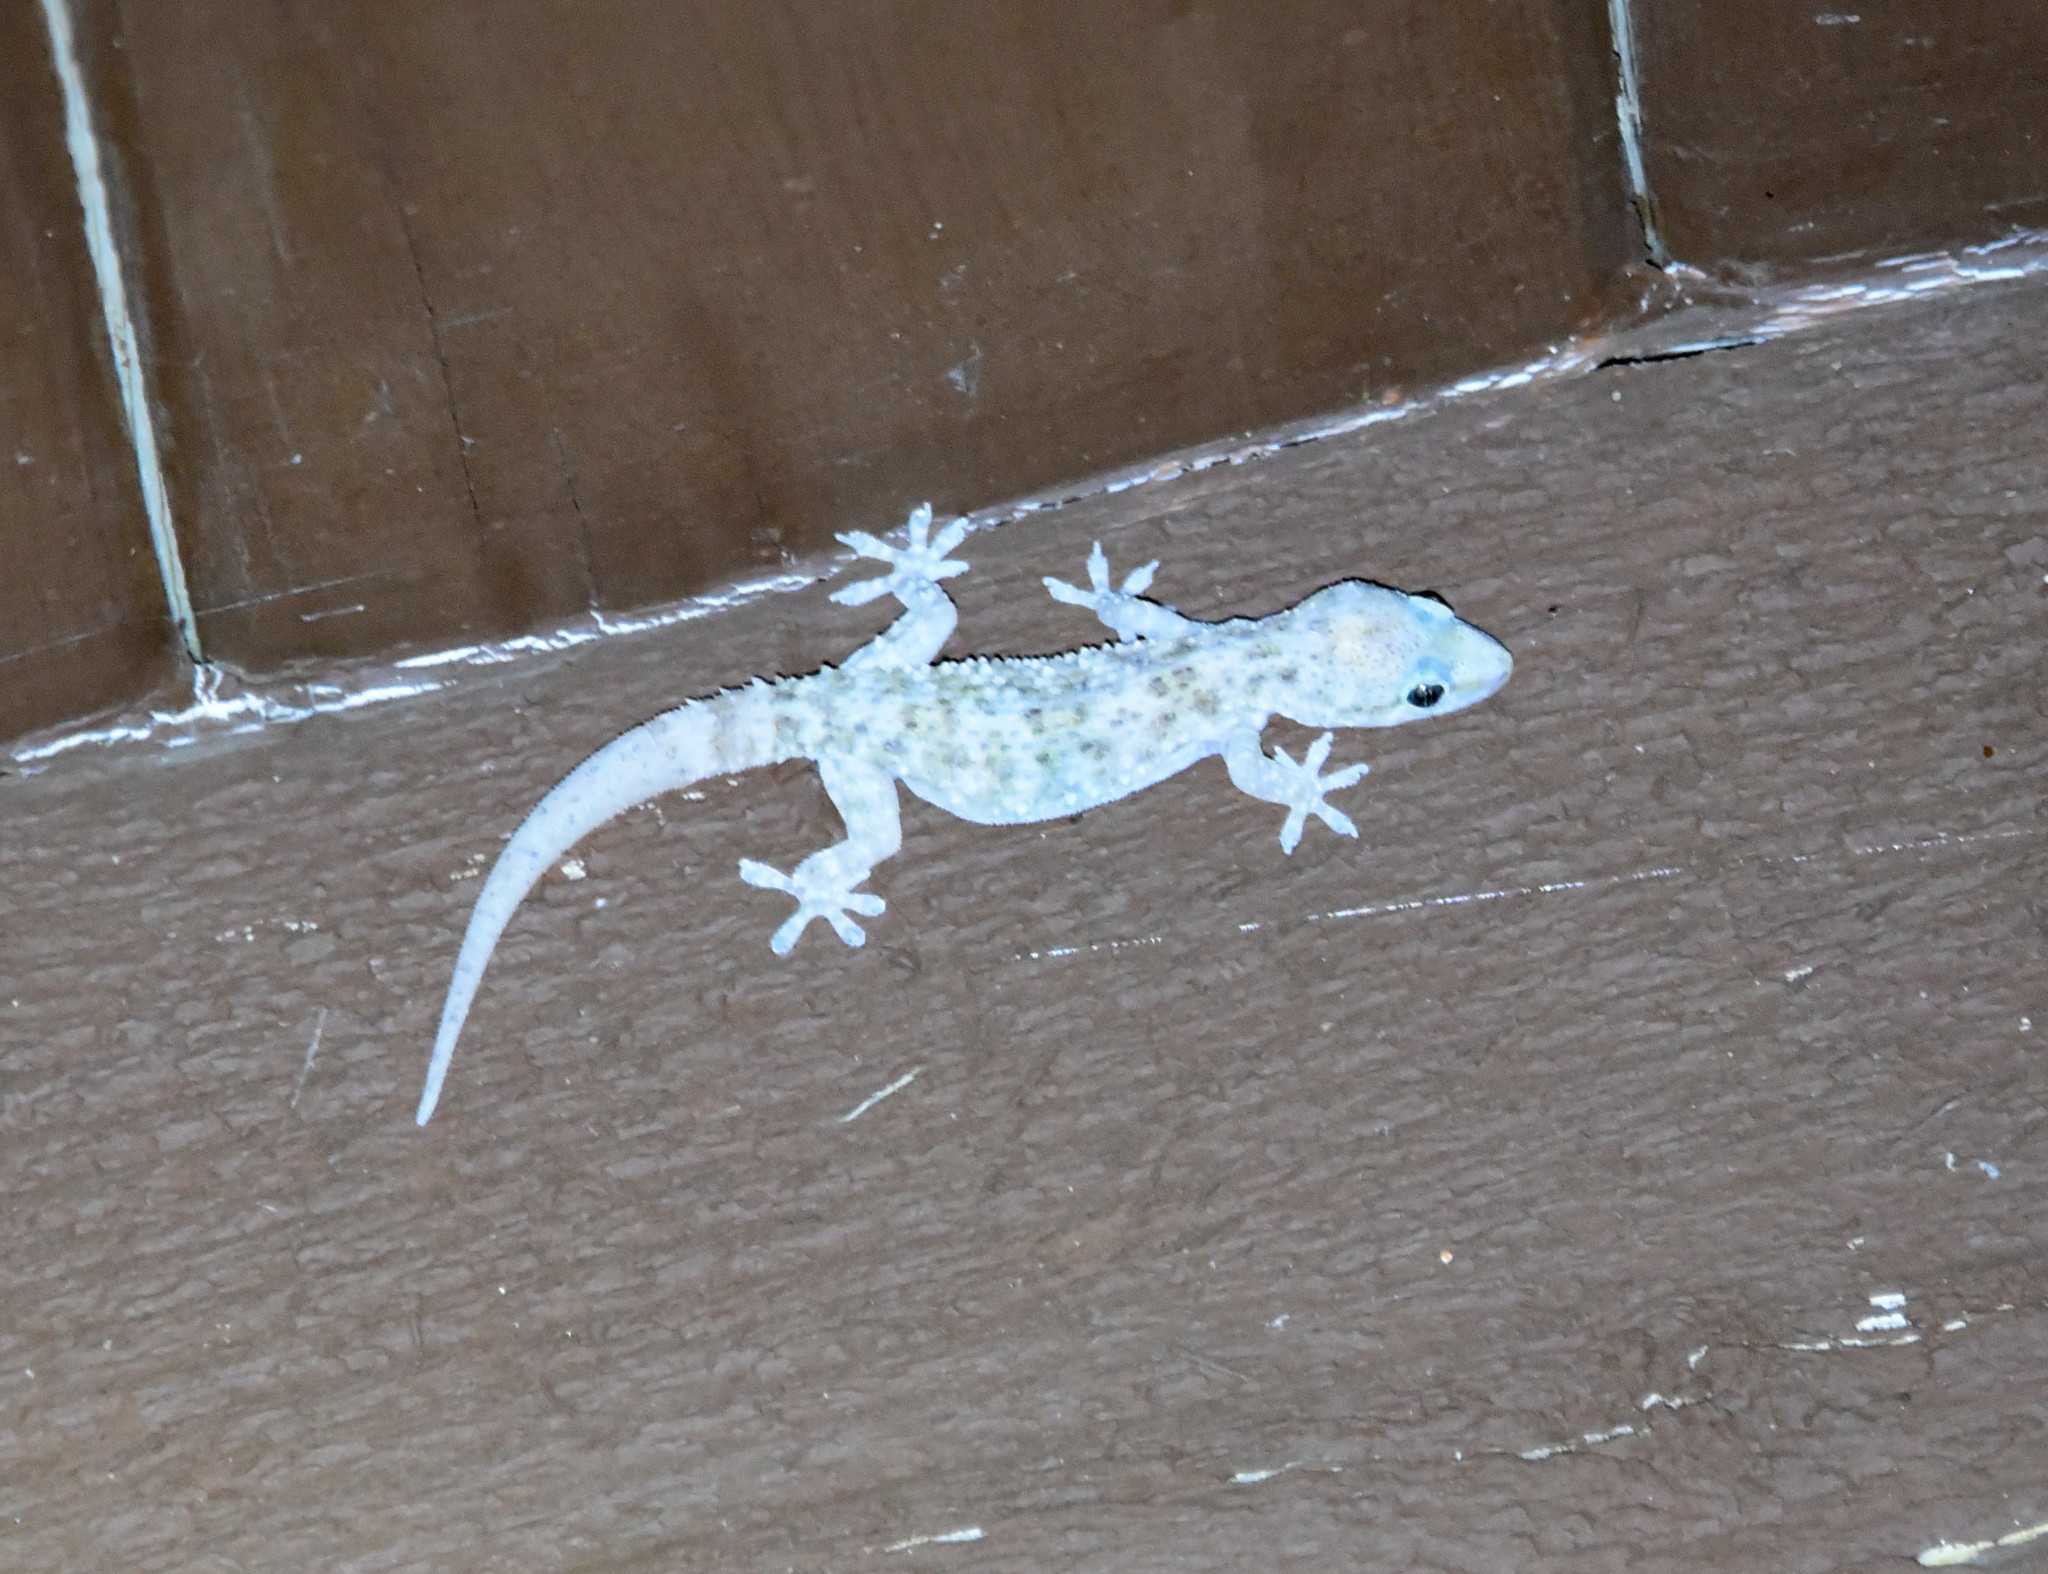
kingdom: Animalia
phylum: Chordata
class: Squamata
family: Gekkonidae
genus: Hemidactylus
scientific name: Hemidactylus turcicus
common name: Turkish gecko
